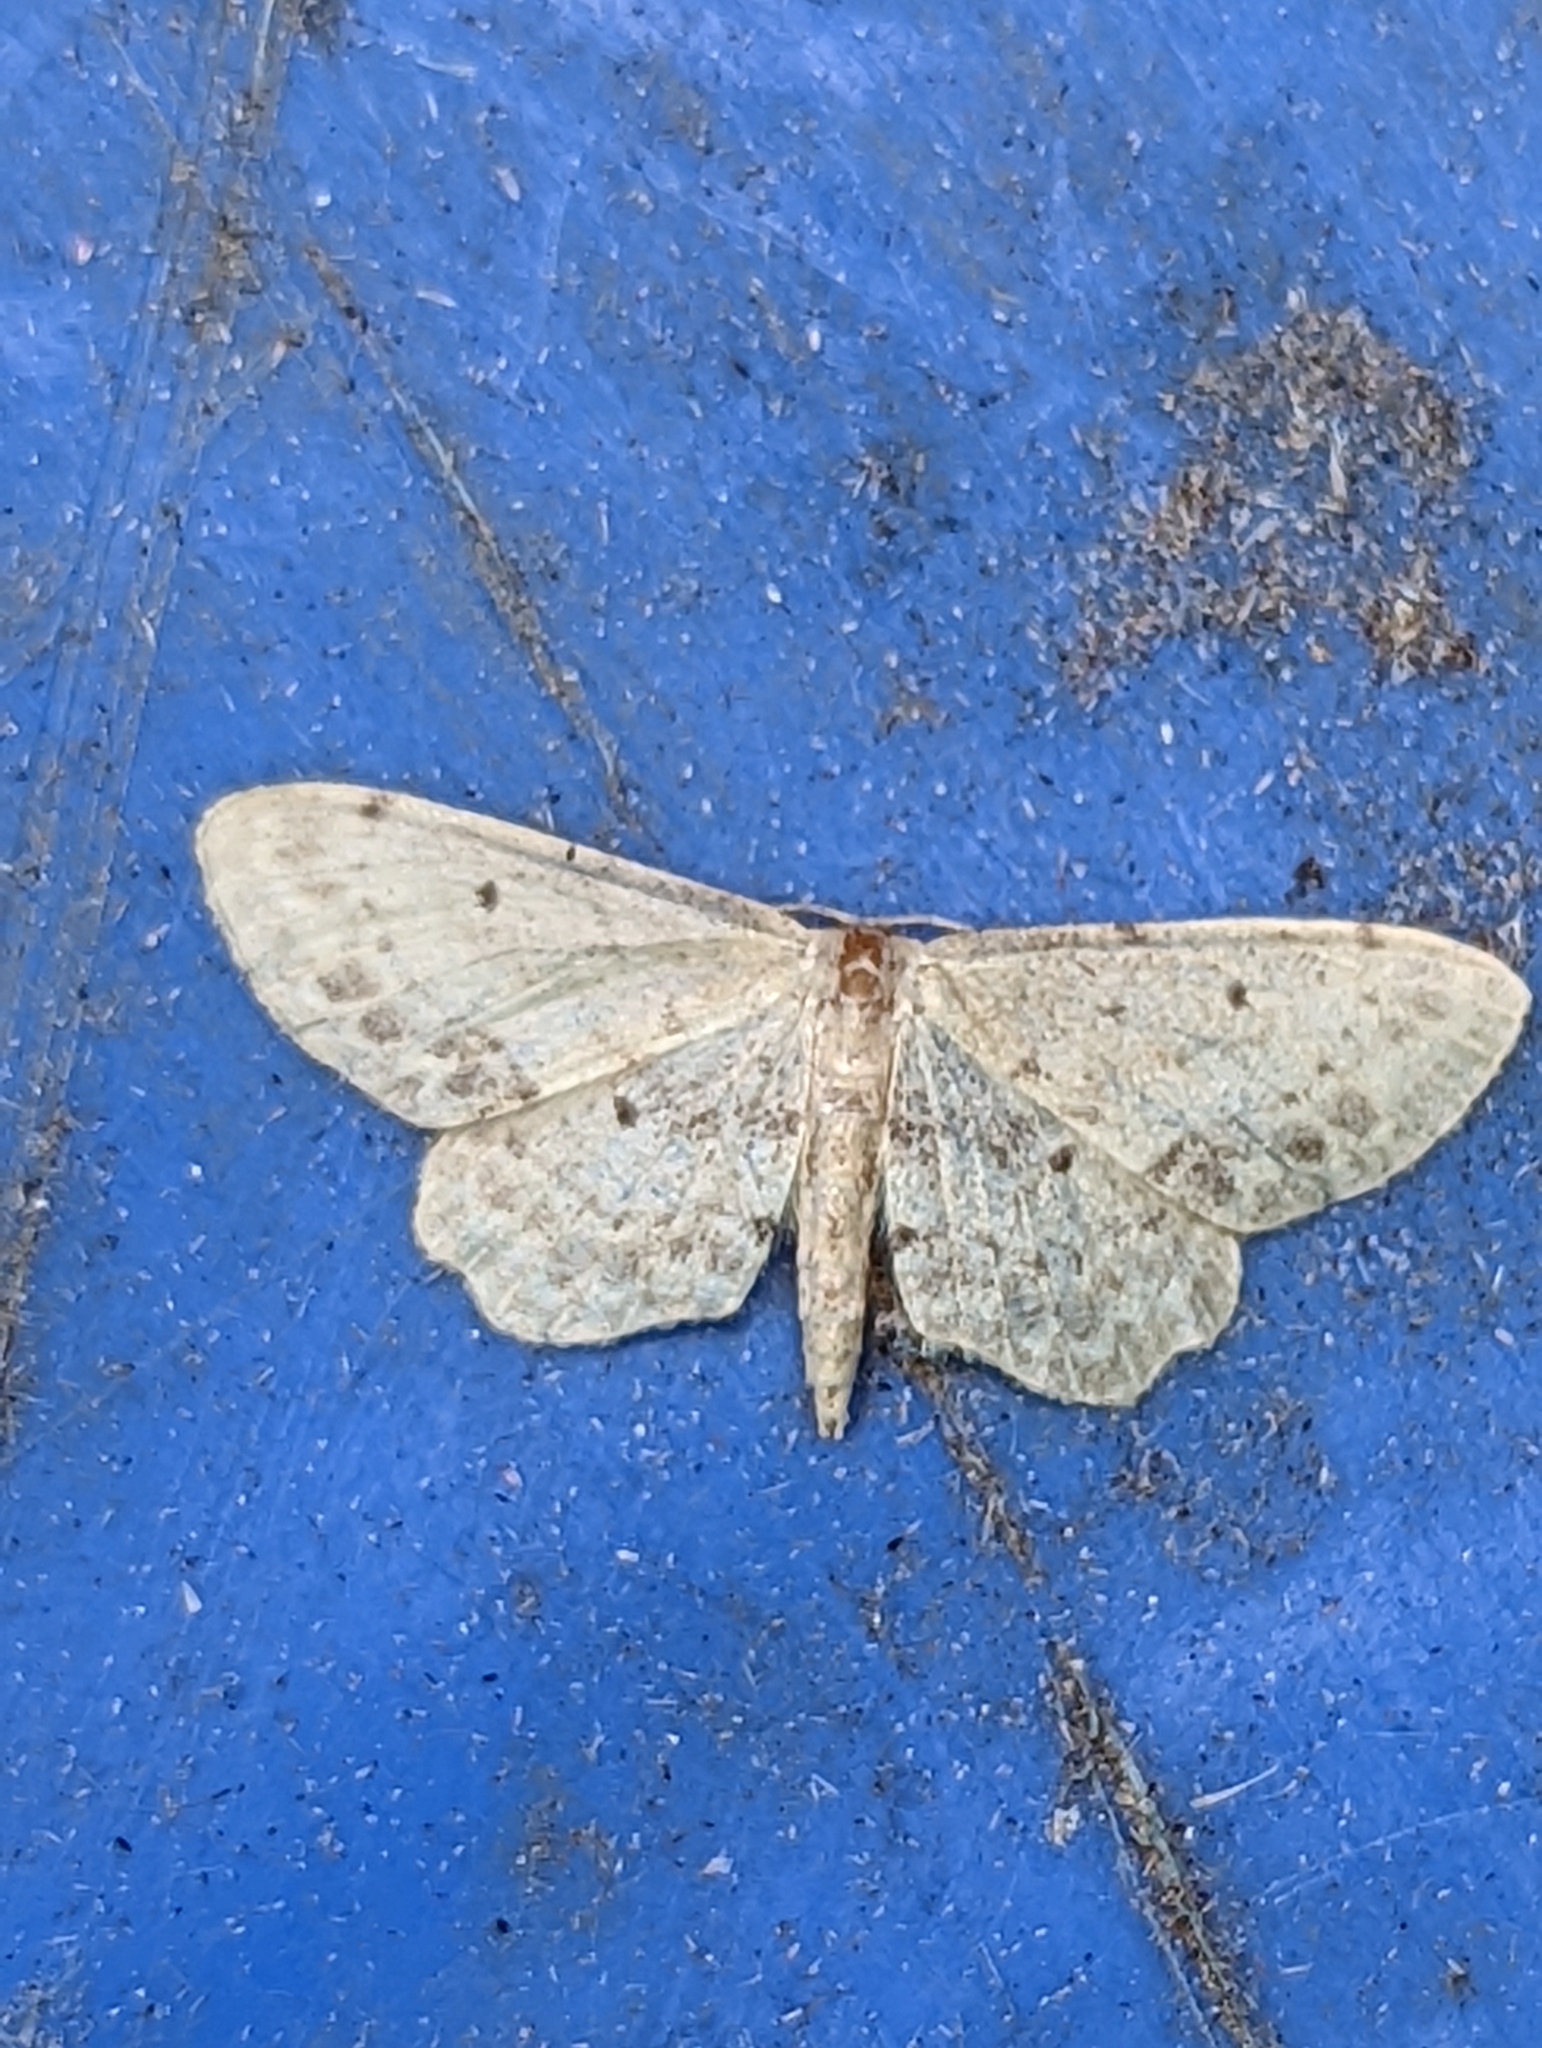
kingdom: Animalia
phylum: Arthropoda
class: Insecta
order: Lepidoptera
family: Geometridae
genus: Idaea
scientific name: Idaea dimidiata
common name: Single-dotted wave
